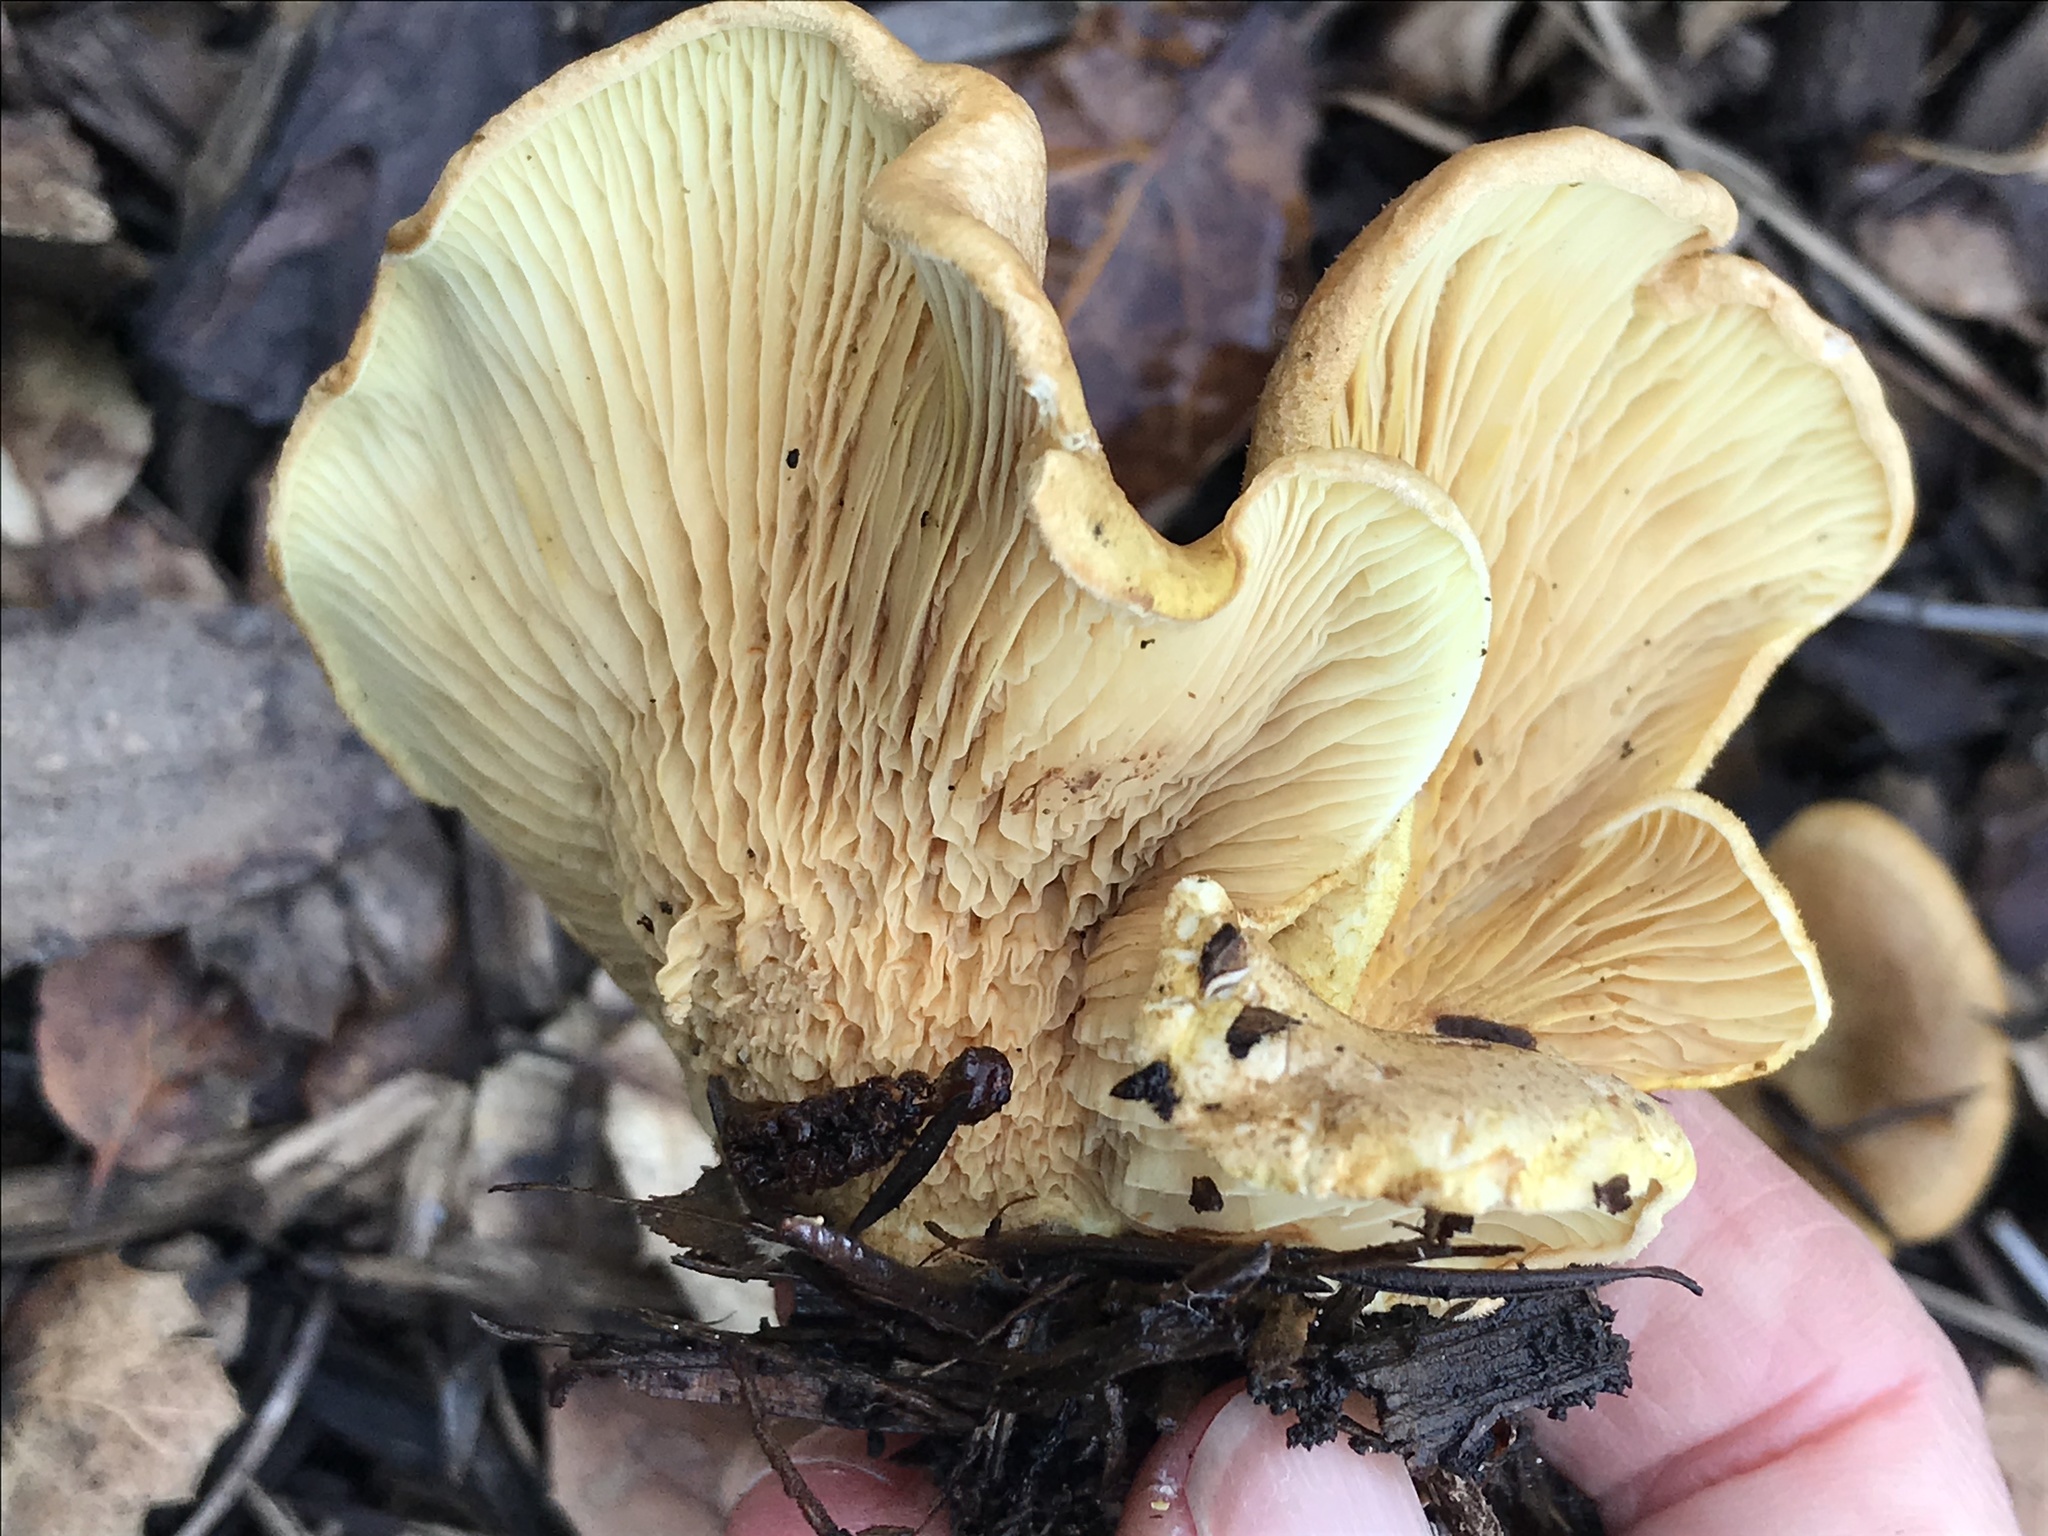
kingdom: Fungi
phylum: Basidiomycota
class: Agaricomycetes
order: Boletales
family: Tapinellaceae
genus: Tapinella
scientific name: Tapinella panuoides
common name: Oyster rollrim
